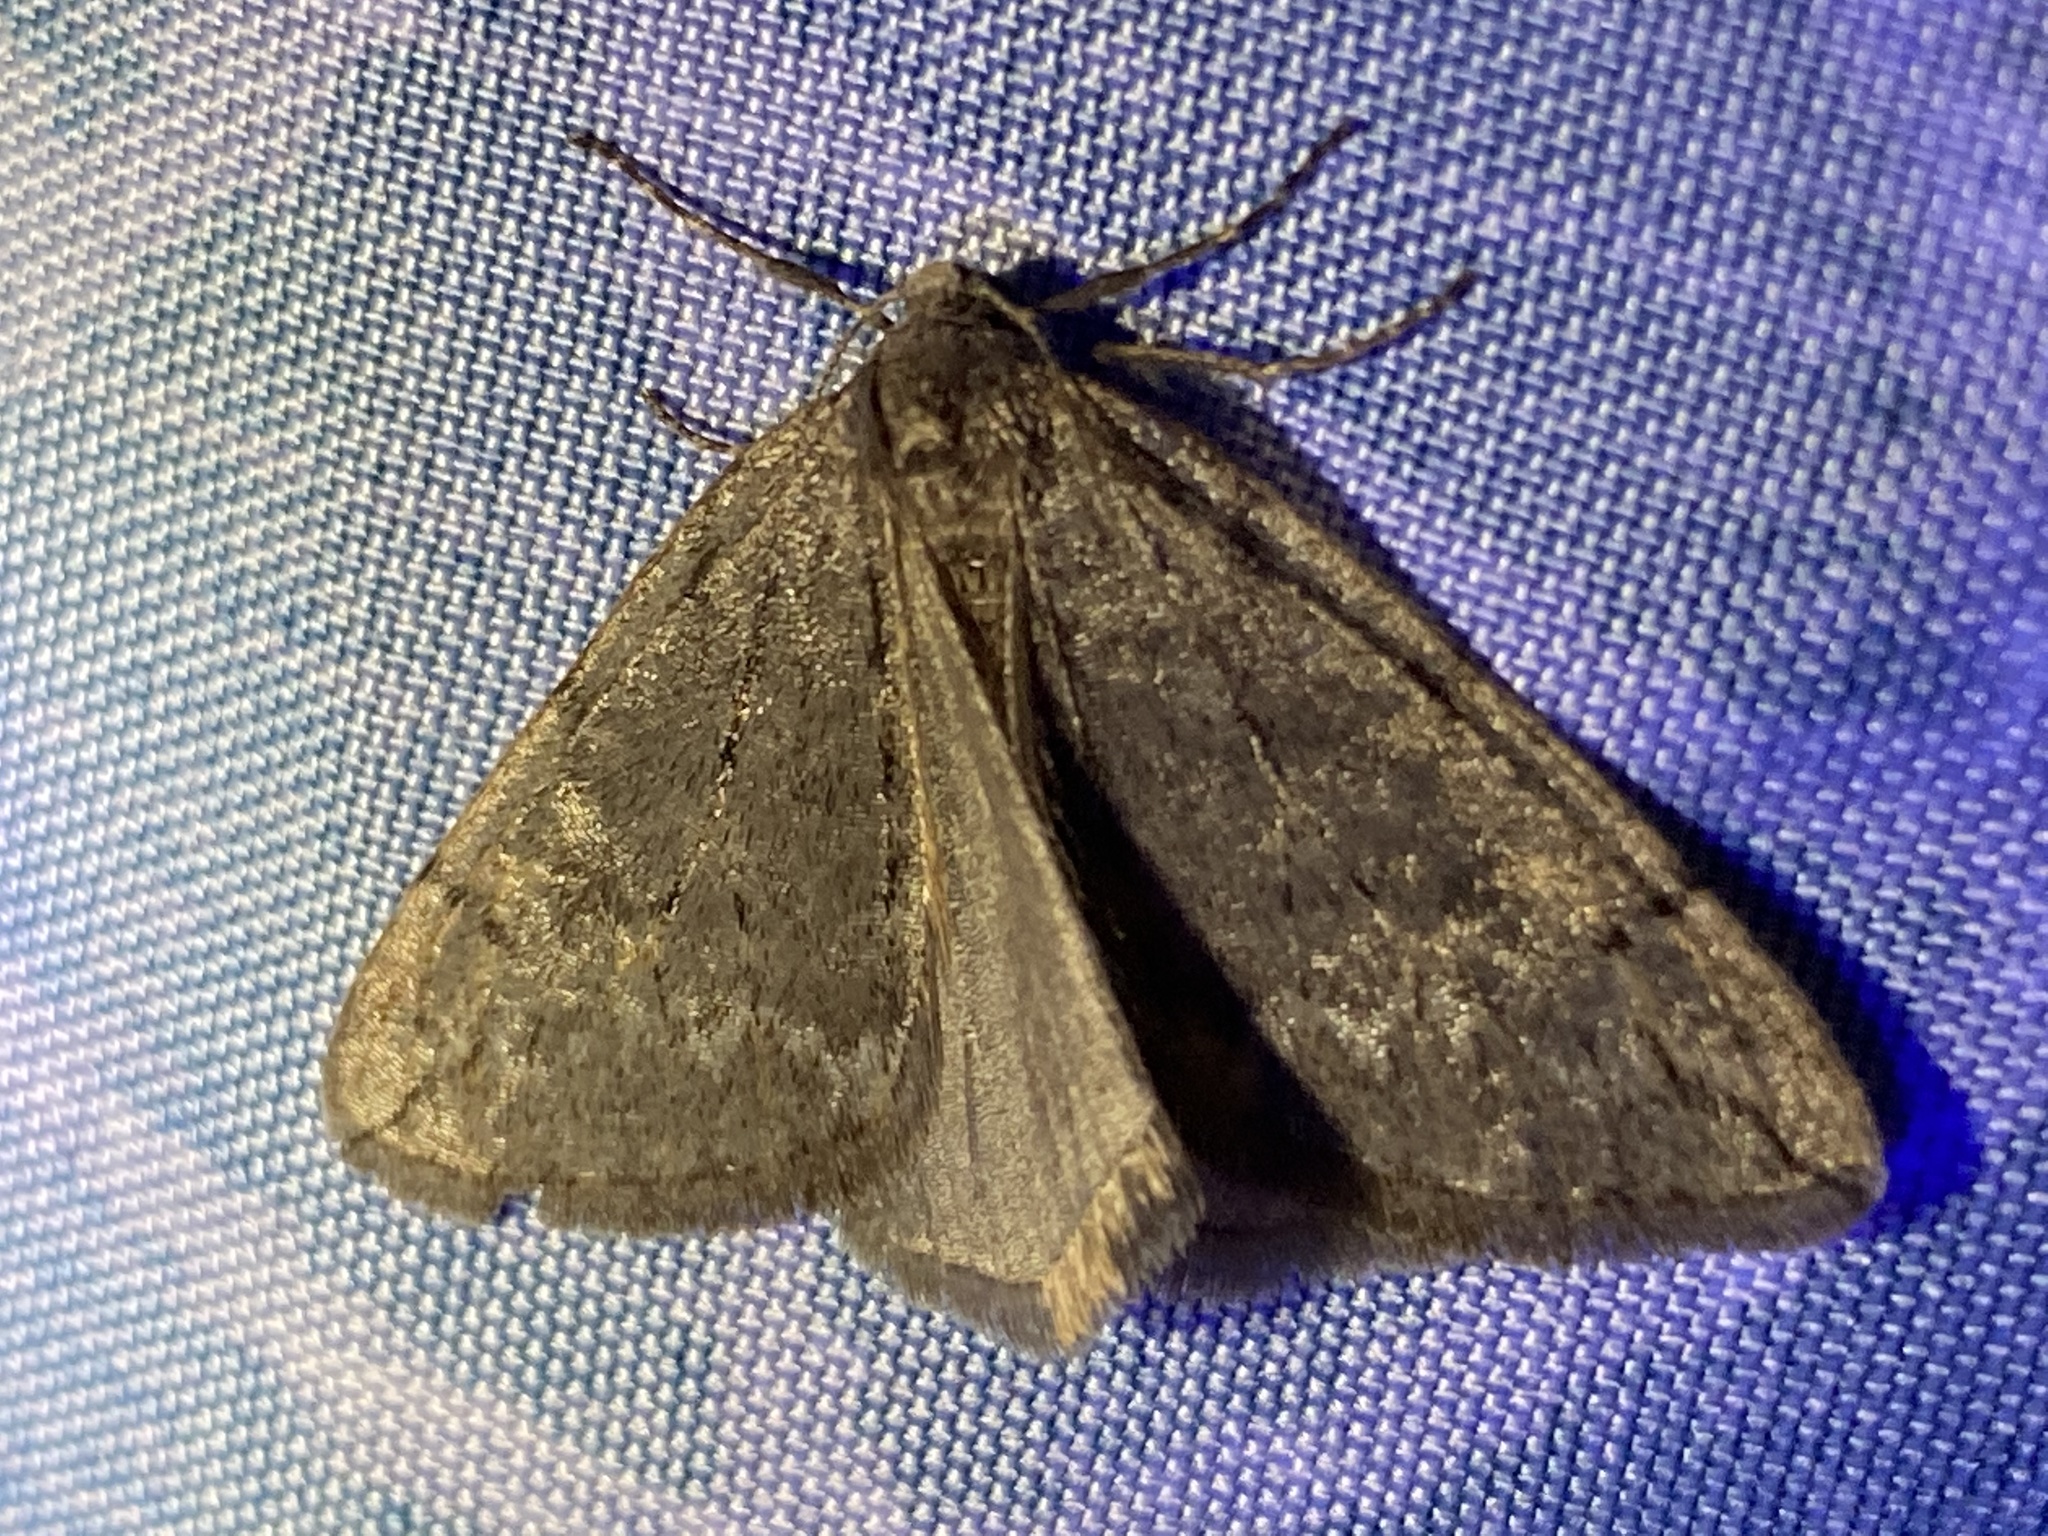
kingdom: Animalia
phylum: Arthropoda
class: Insecta
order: Lepidoptera
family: Geometridae
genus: Paleacrita
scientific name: Paleacrita vernata
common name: Spring cankerworm
